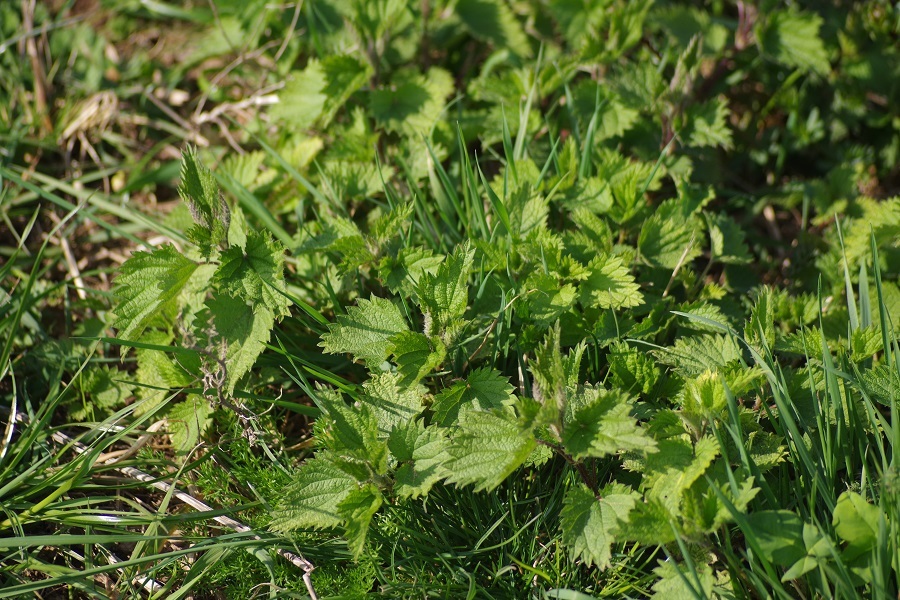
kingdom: Plantae
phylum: Tracheophyta
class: Magnoliopsida
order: Rosales
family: Urticaceae
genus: Urtica
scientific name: Urtica dioica
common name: Common nettle
